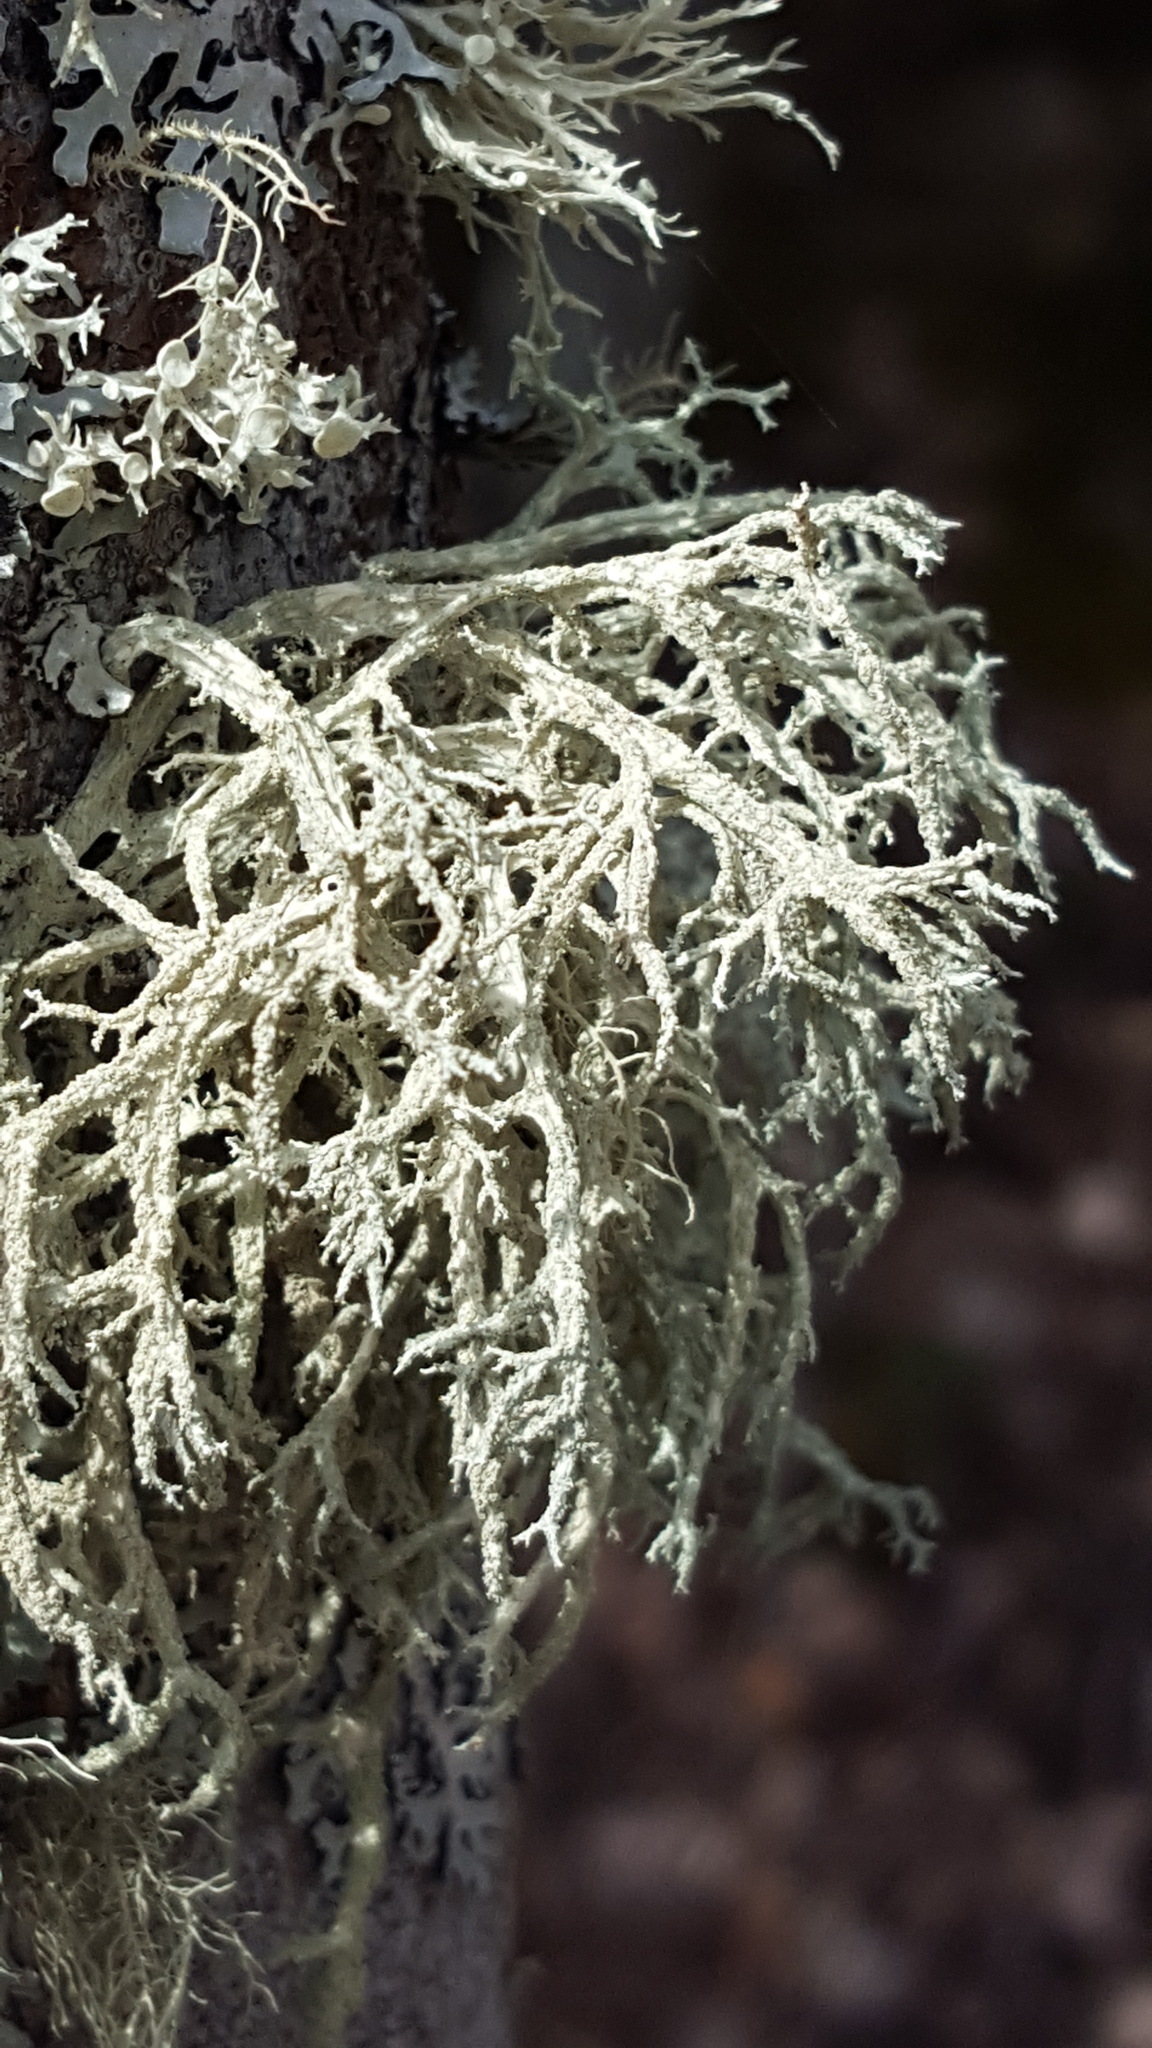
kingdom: Fungi
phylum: Ascomycota
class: Lecanoromycetes
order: Lecanorales
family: Parmeliaceae
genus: Evernia
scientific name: Evernia mesomorpha
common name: Boreal oak moss lichen
